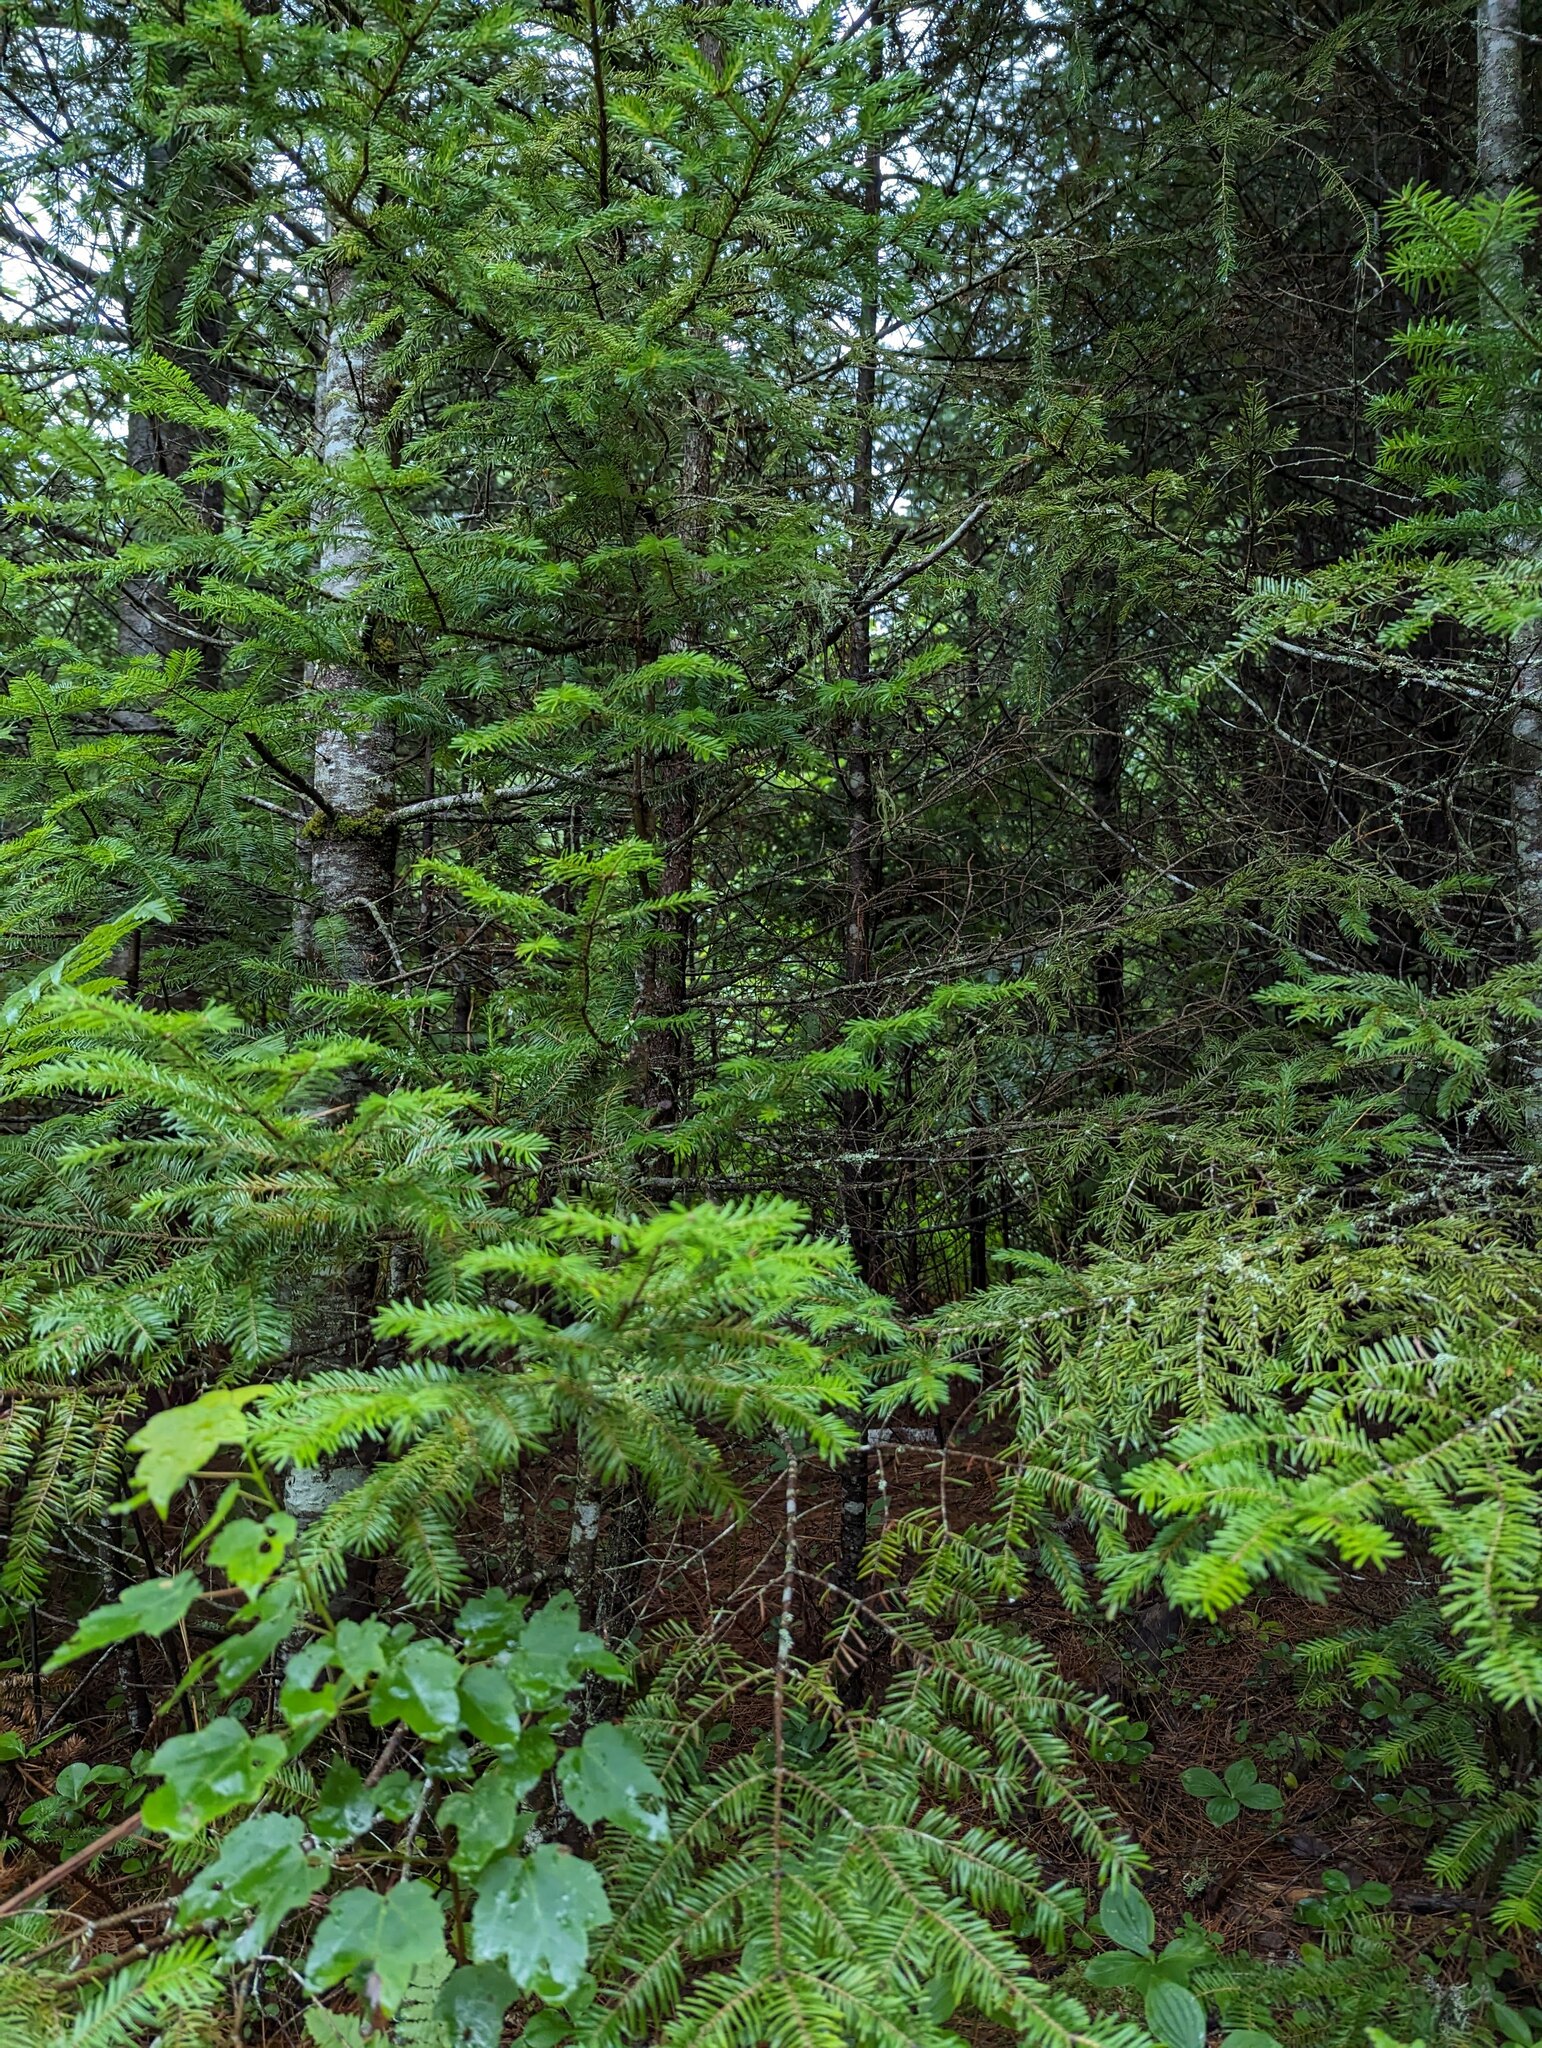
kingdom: Plantae
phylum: Tracheophyta
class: Pinopsida
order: Pinales
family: Pinaceae
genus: Abies
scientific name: Abies balsamea
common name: Balsam fir
